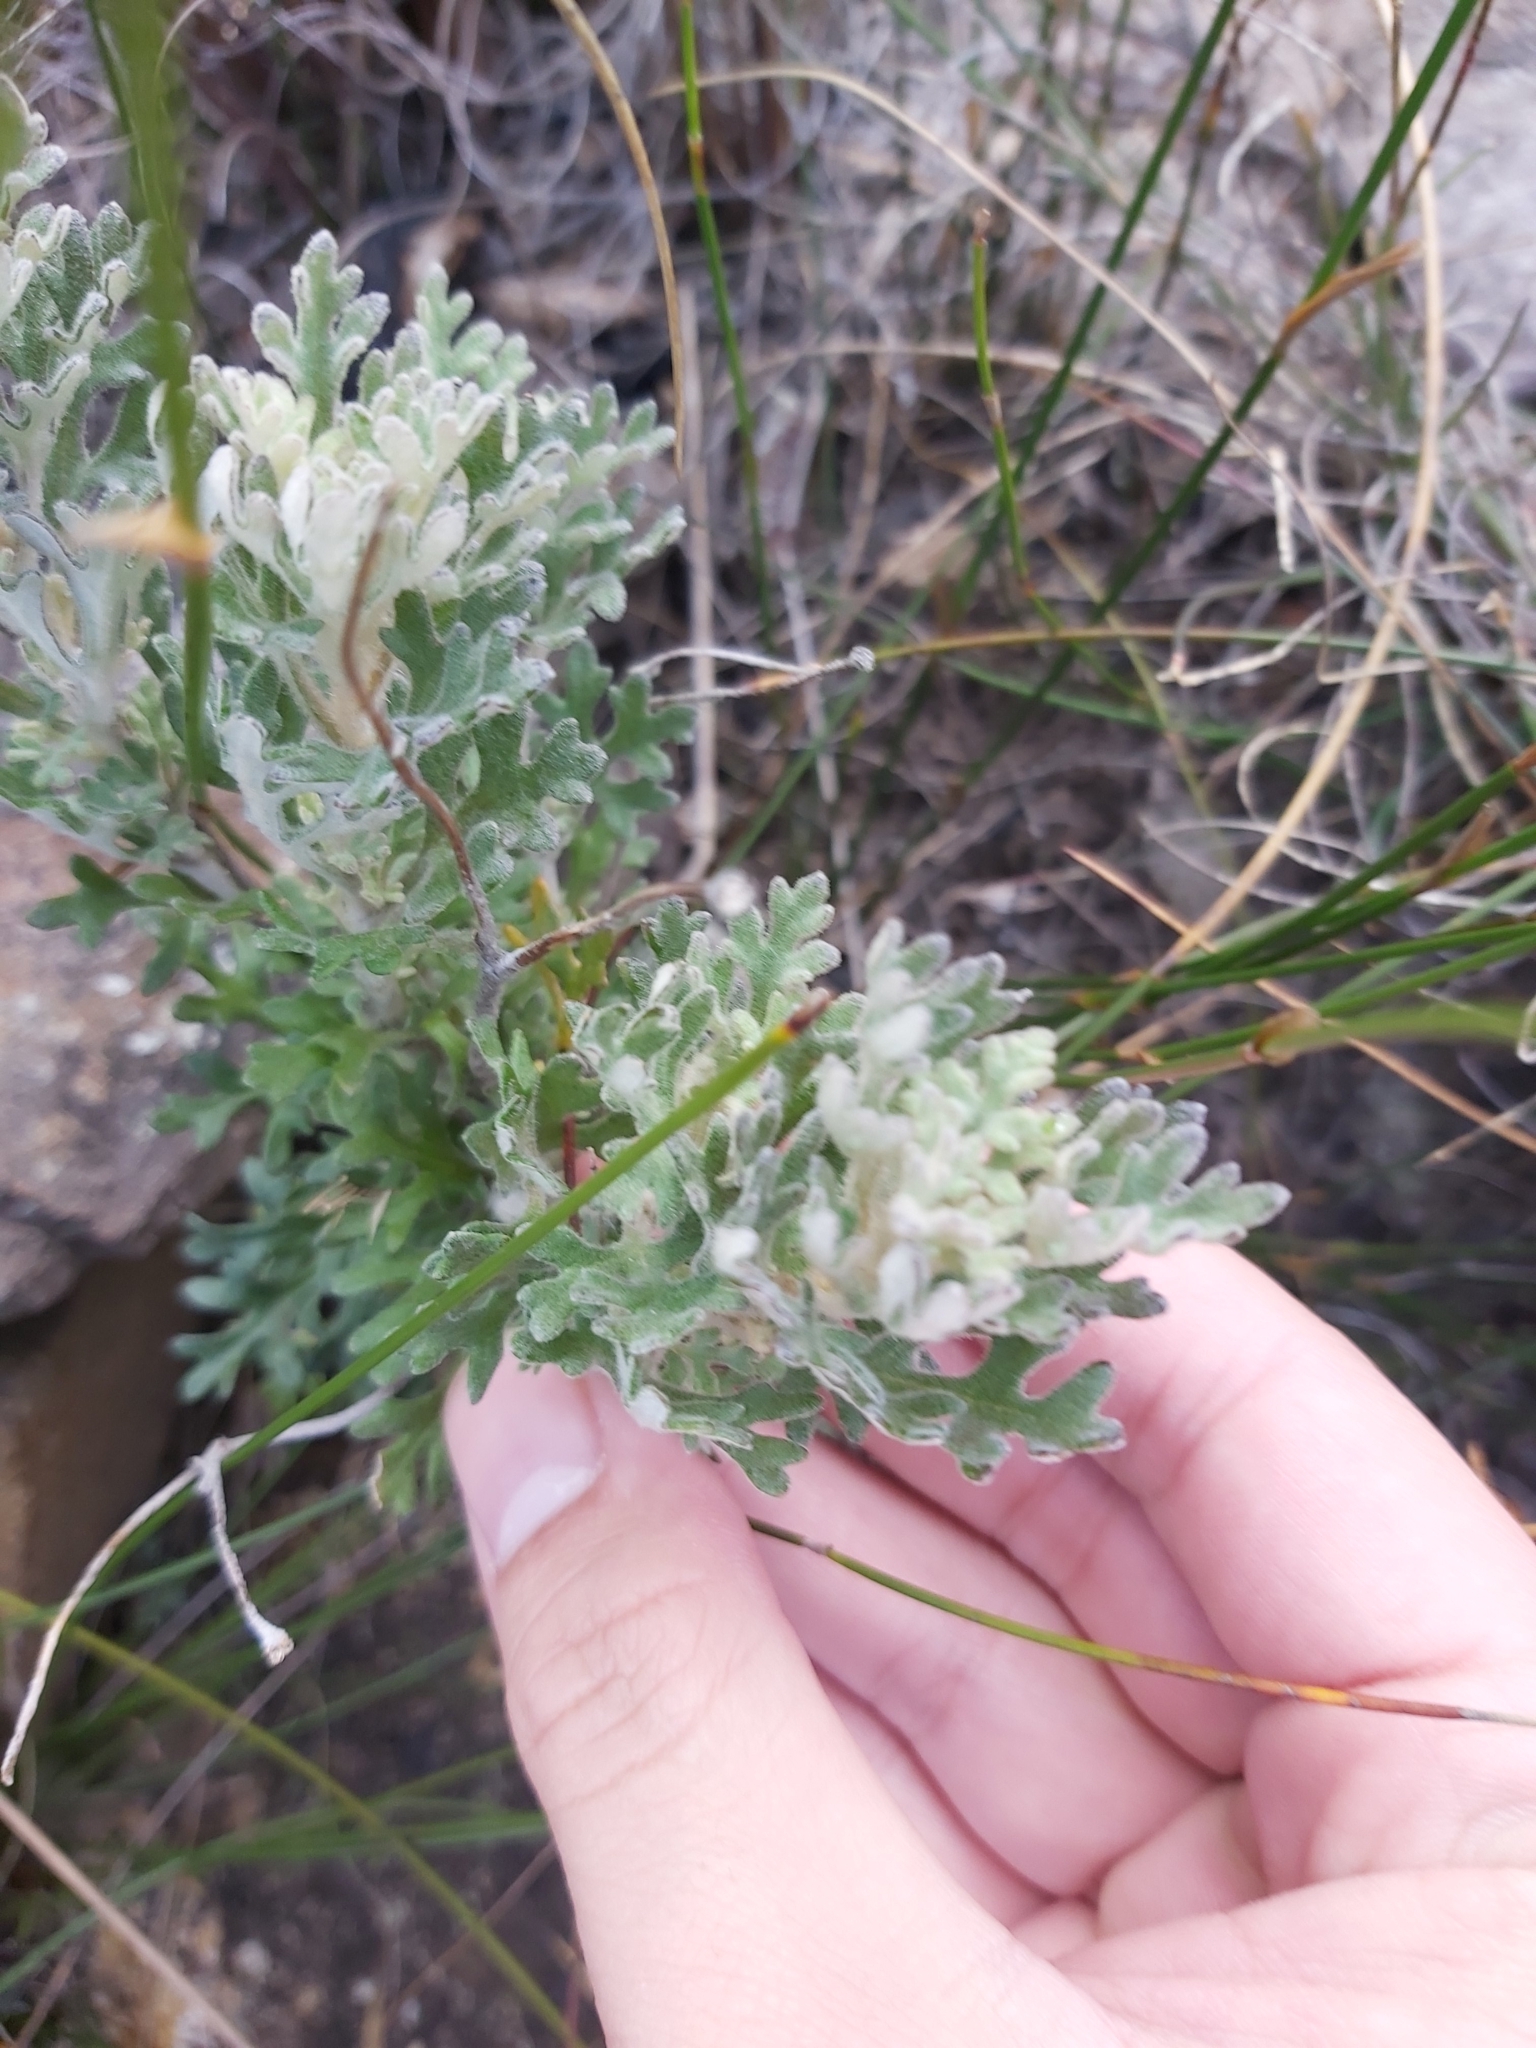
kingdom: Plantae
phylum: Tracheophyta
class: Magnoliopsida
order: Apiales
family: Apiaceae
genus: Actinotus
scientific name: Actinotus helianthi
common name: Flannel-flower
